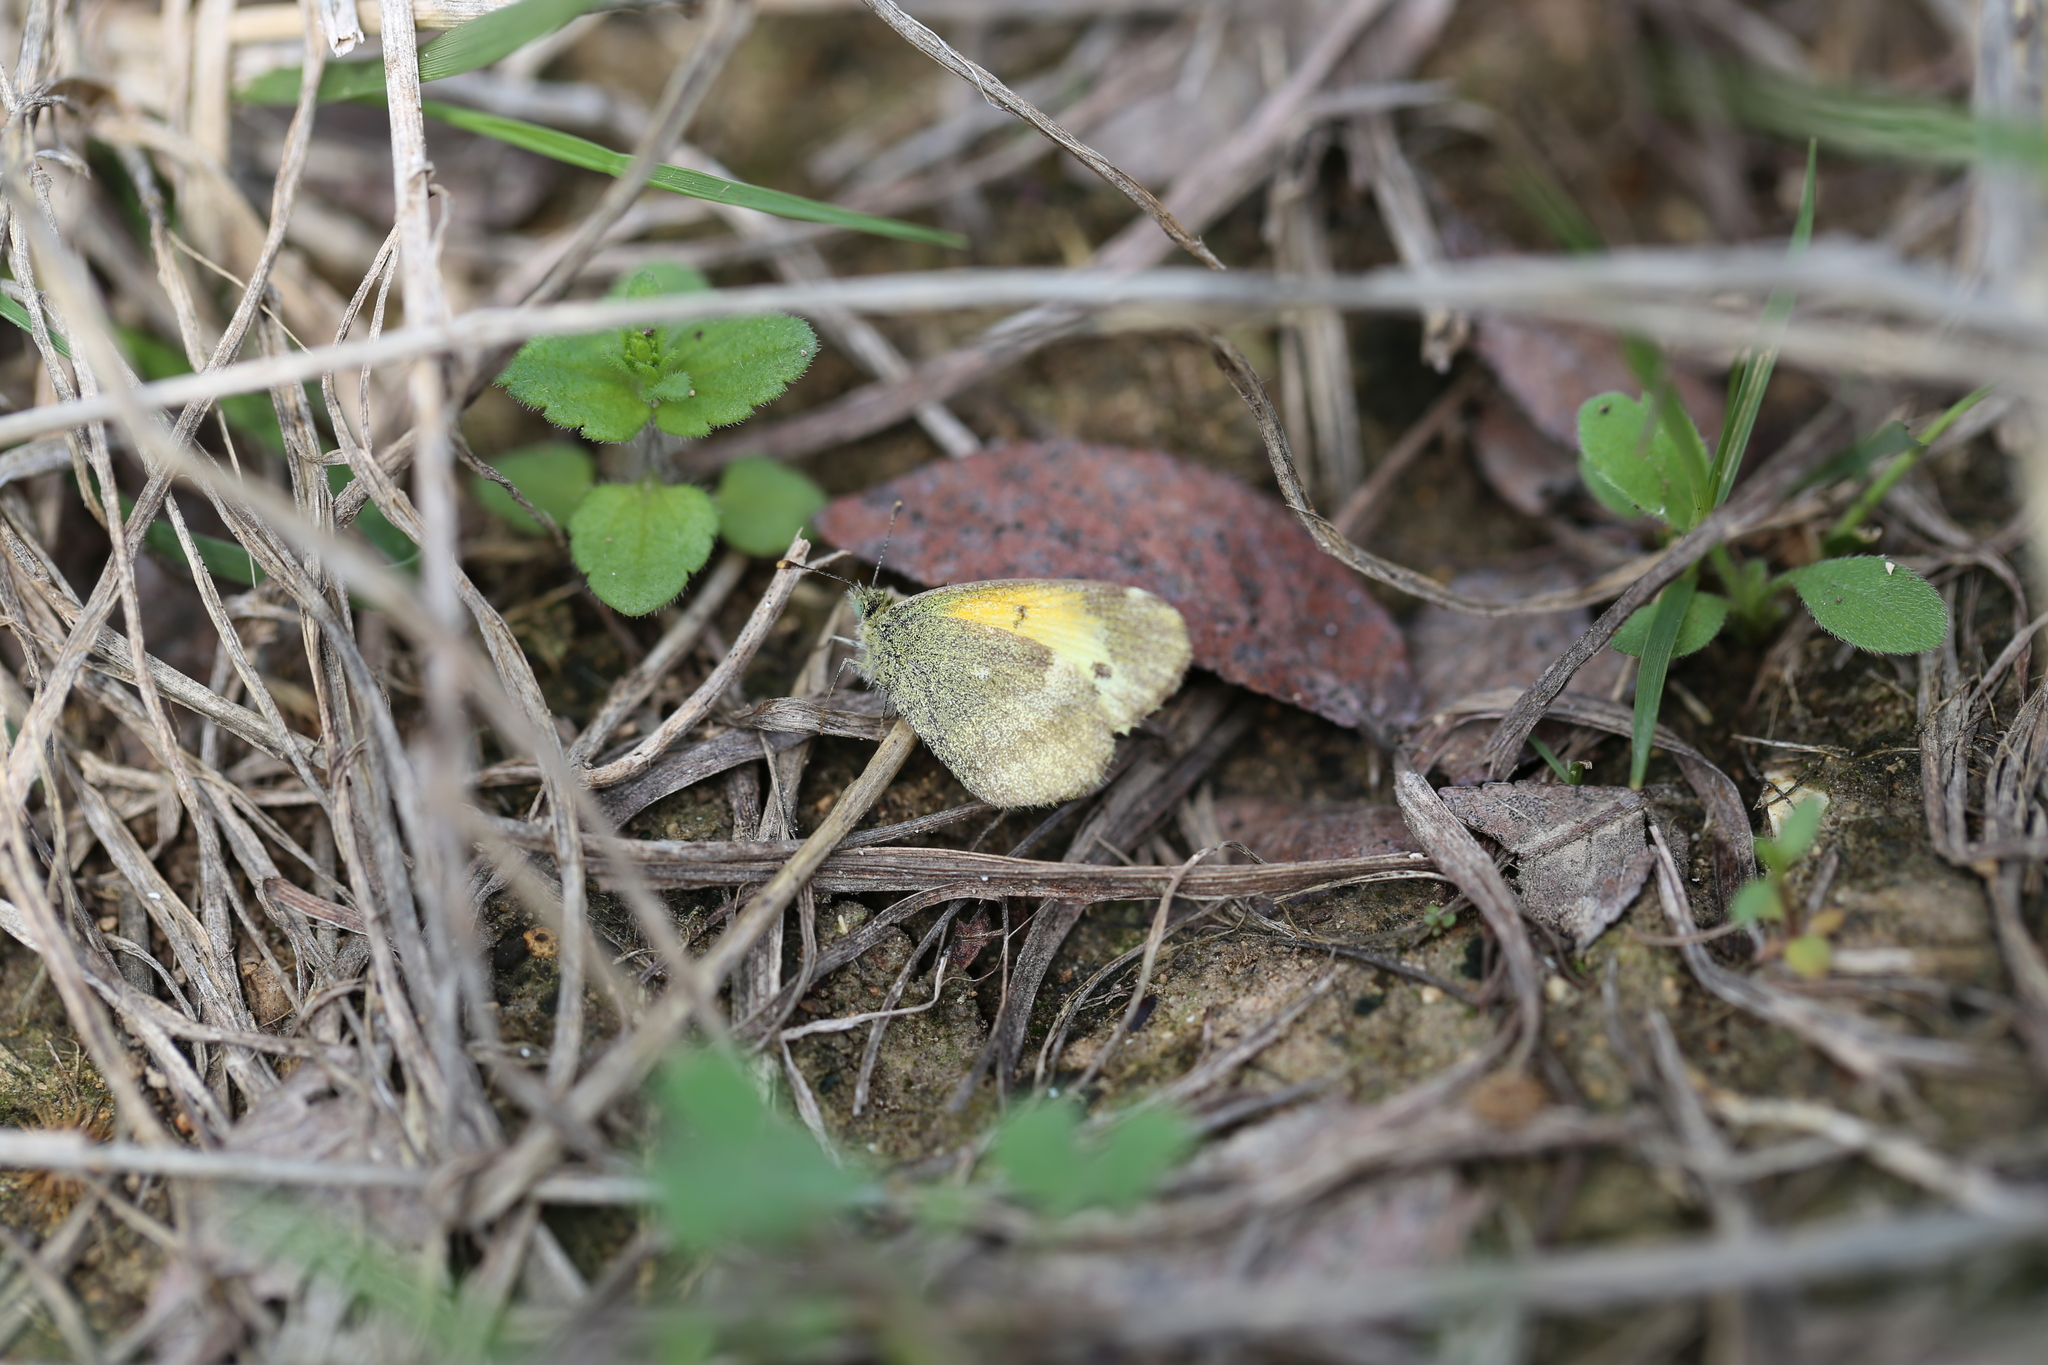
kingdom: Animalia
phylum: Arthropoda
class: Insecta
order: Lepidoptera
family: Pieridae
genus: Nathalis
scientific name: Nathalis iole
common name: Dainty sulphur
